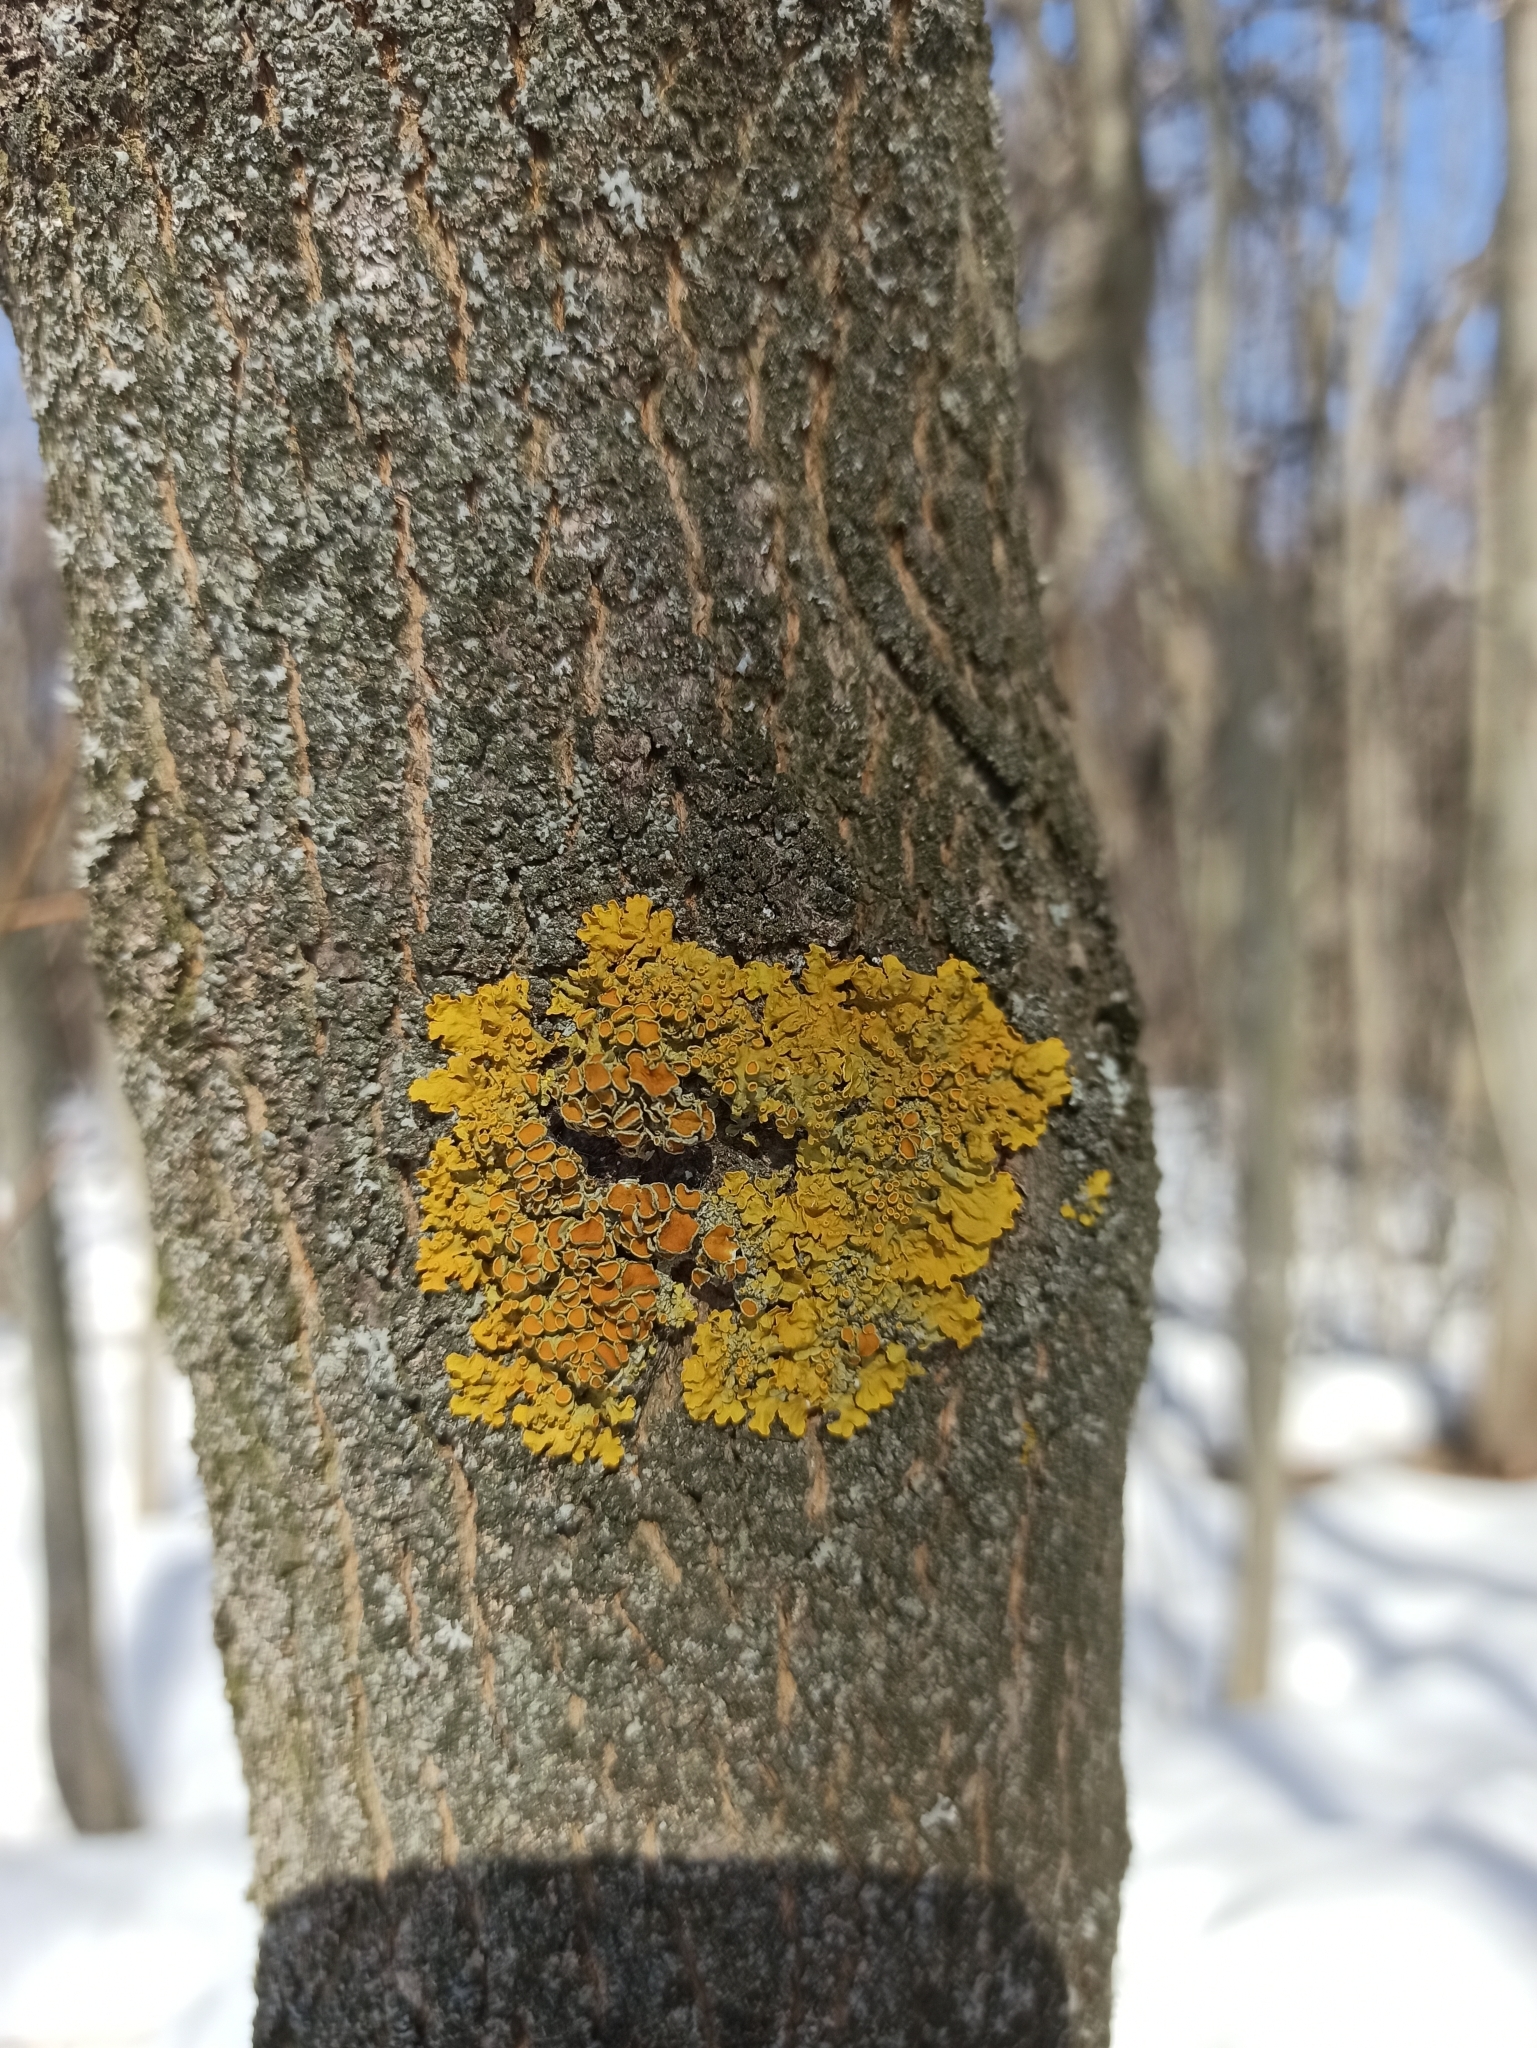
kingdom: Fungi
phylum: Ascomycota
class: Lecanoromycetes
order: Teloschistales
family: Teloschistaceae
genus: Xanthoria
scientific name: Xanthoria parietina
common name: Common orange lichen
